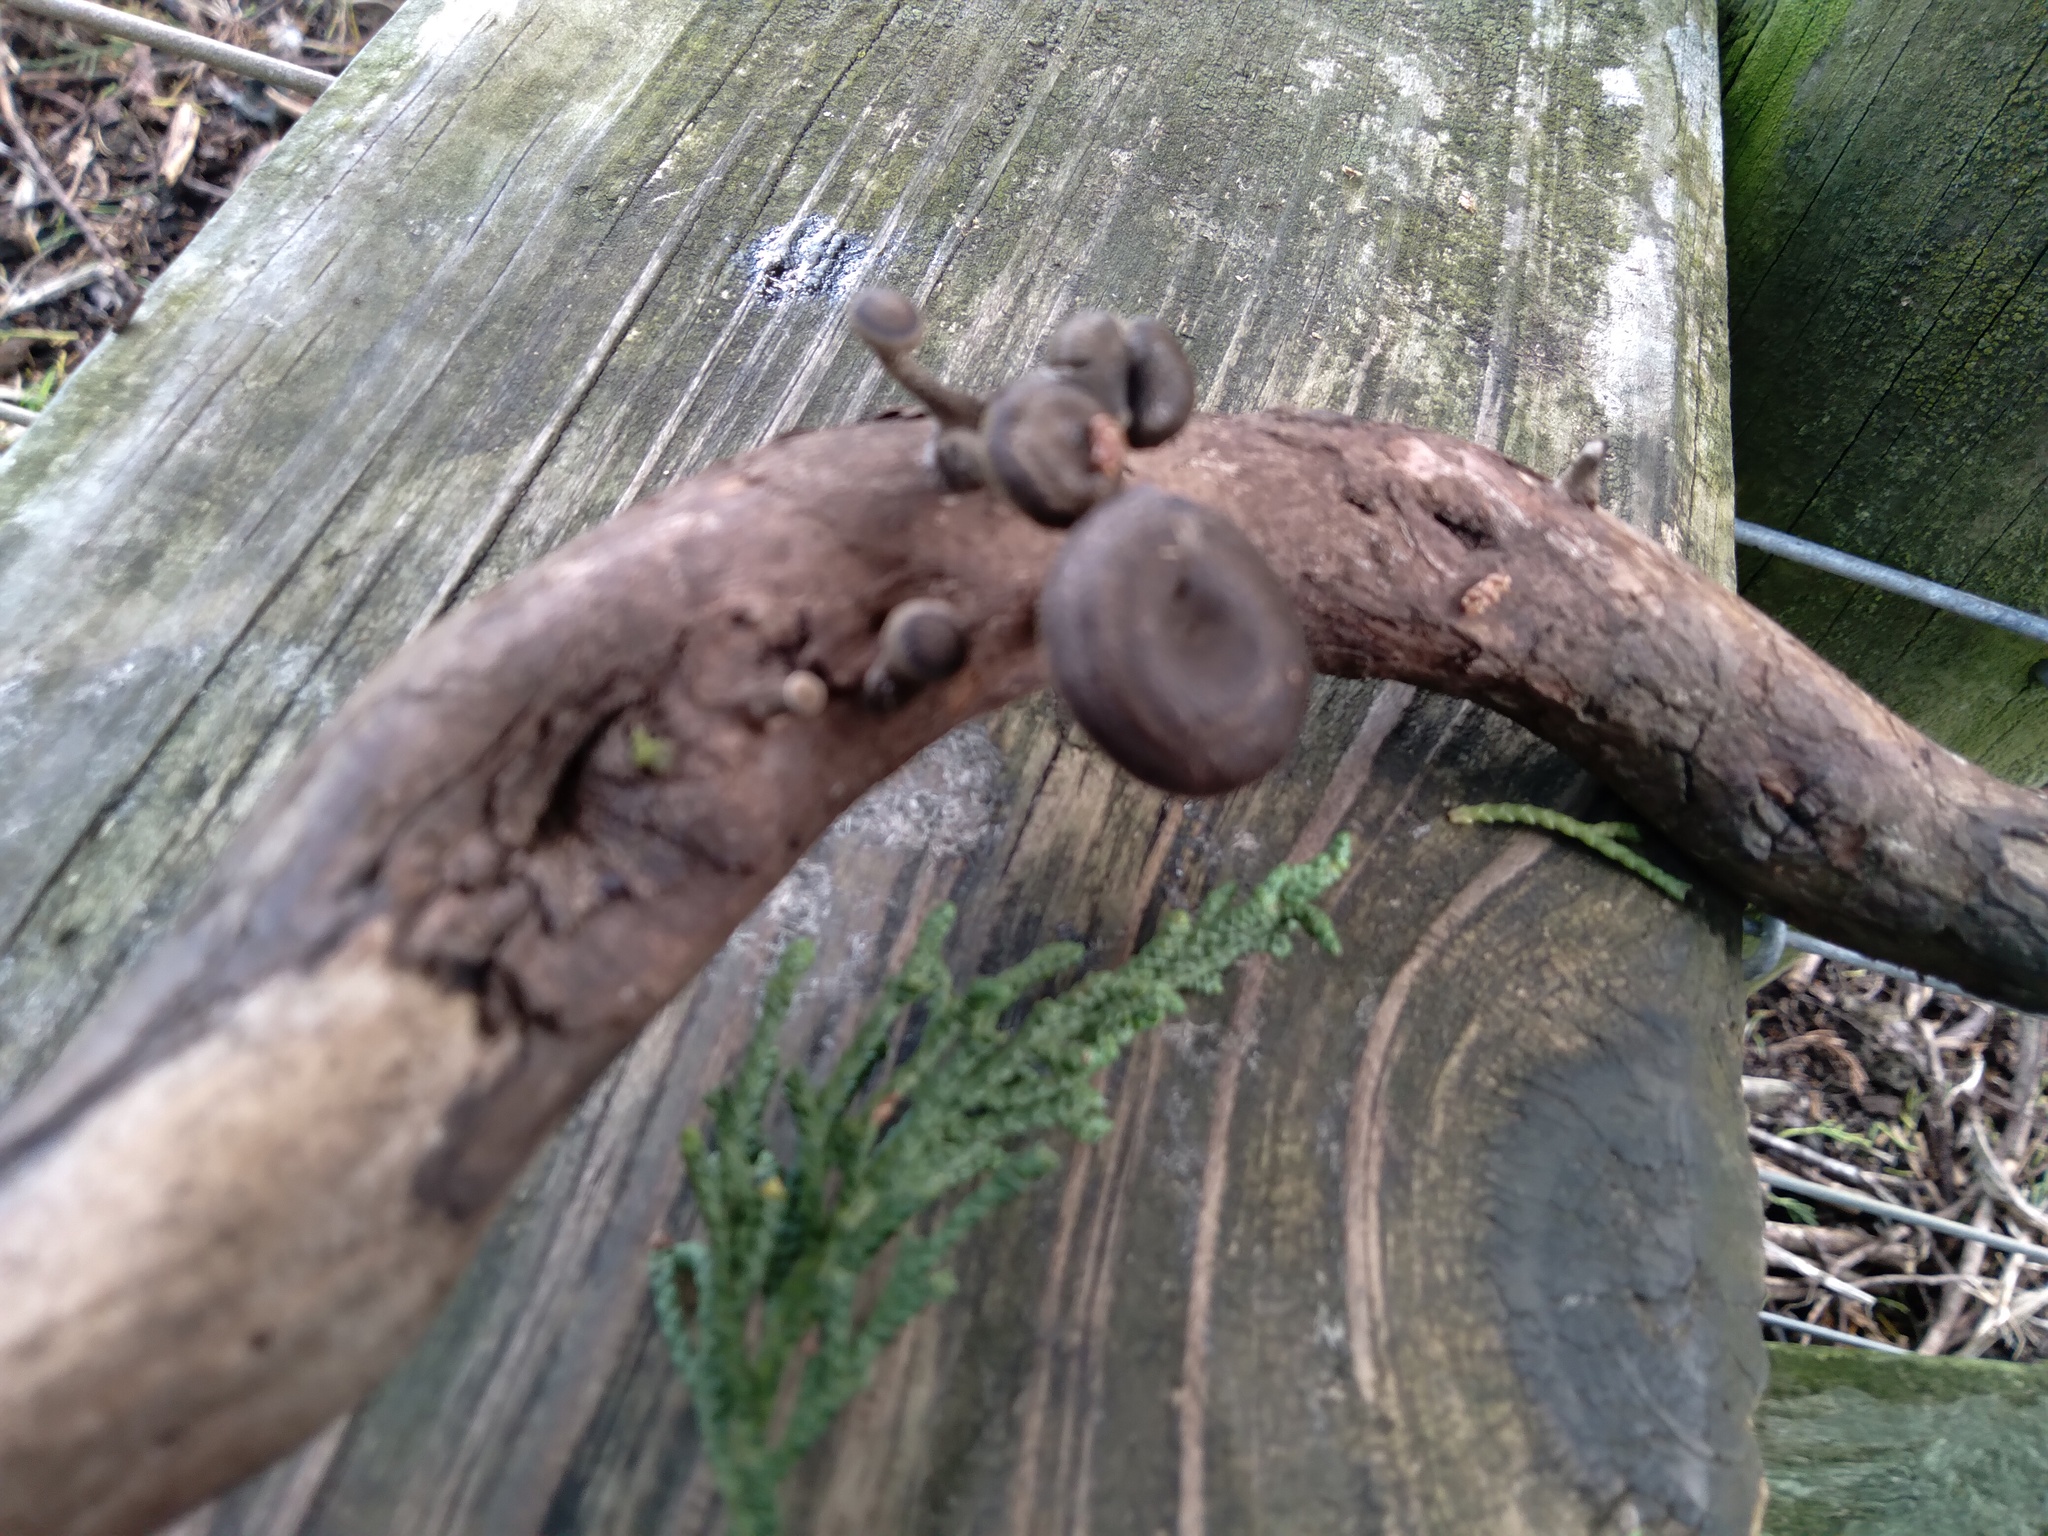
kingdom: Fungi
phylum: Basidiomycota
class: Agaricomycetes
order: Polyporales
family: Polyporaceae
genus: Lentinus
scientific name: Lentinus arcularius
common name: Spring polypore
